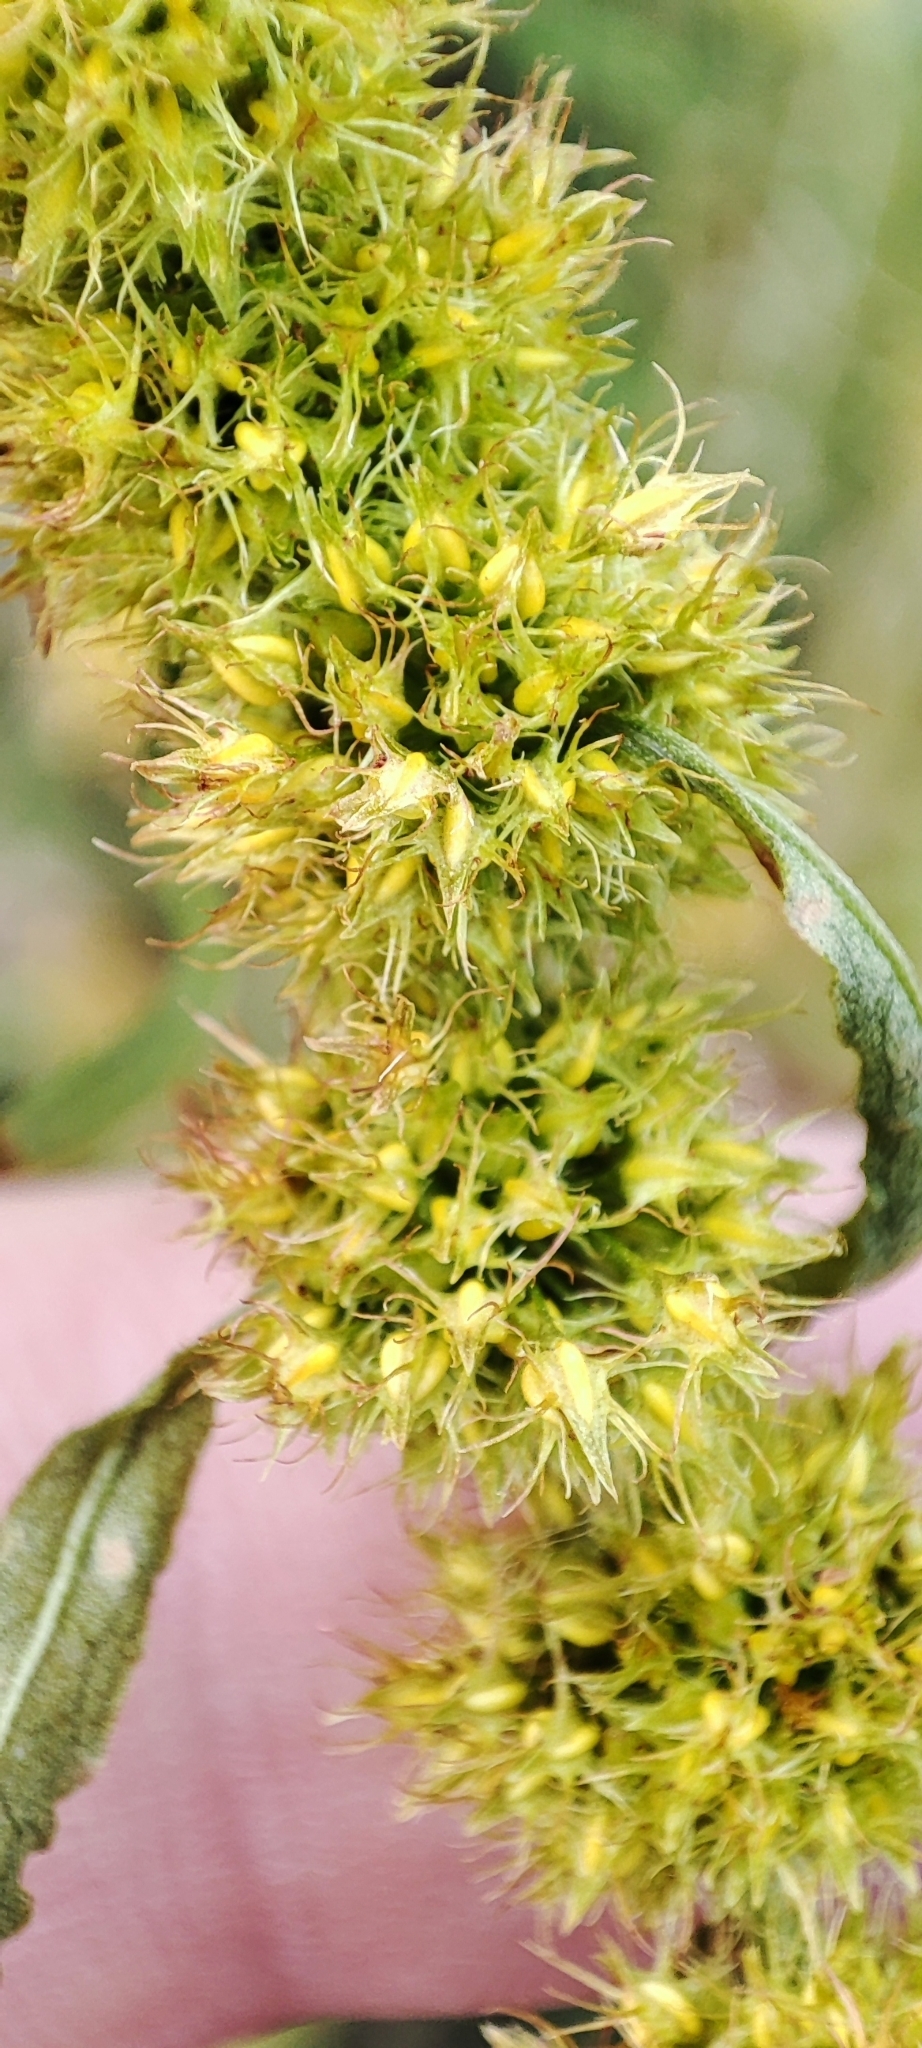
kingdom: Plantae
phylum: Tracheophyta
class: Magnoliopsida
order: Caryophyllales
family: Polygonaceae
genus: Rumex
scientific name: Rumex maritimus
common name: Golden dock
